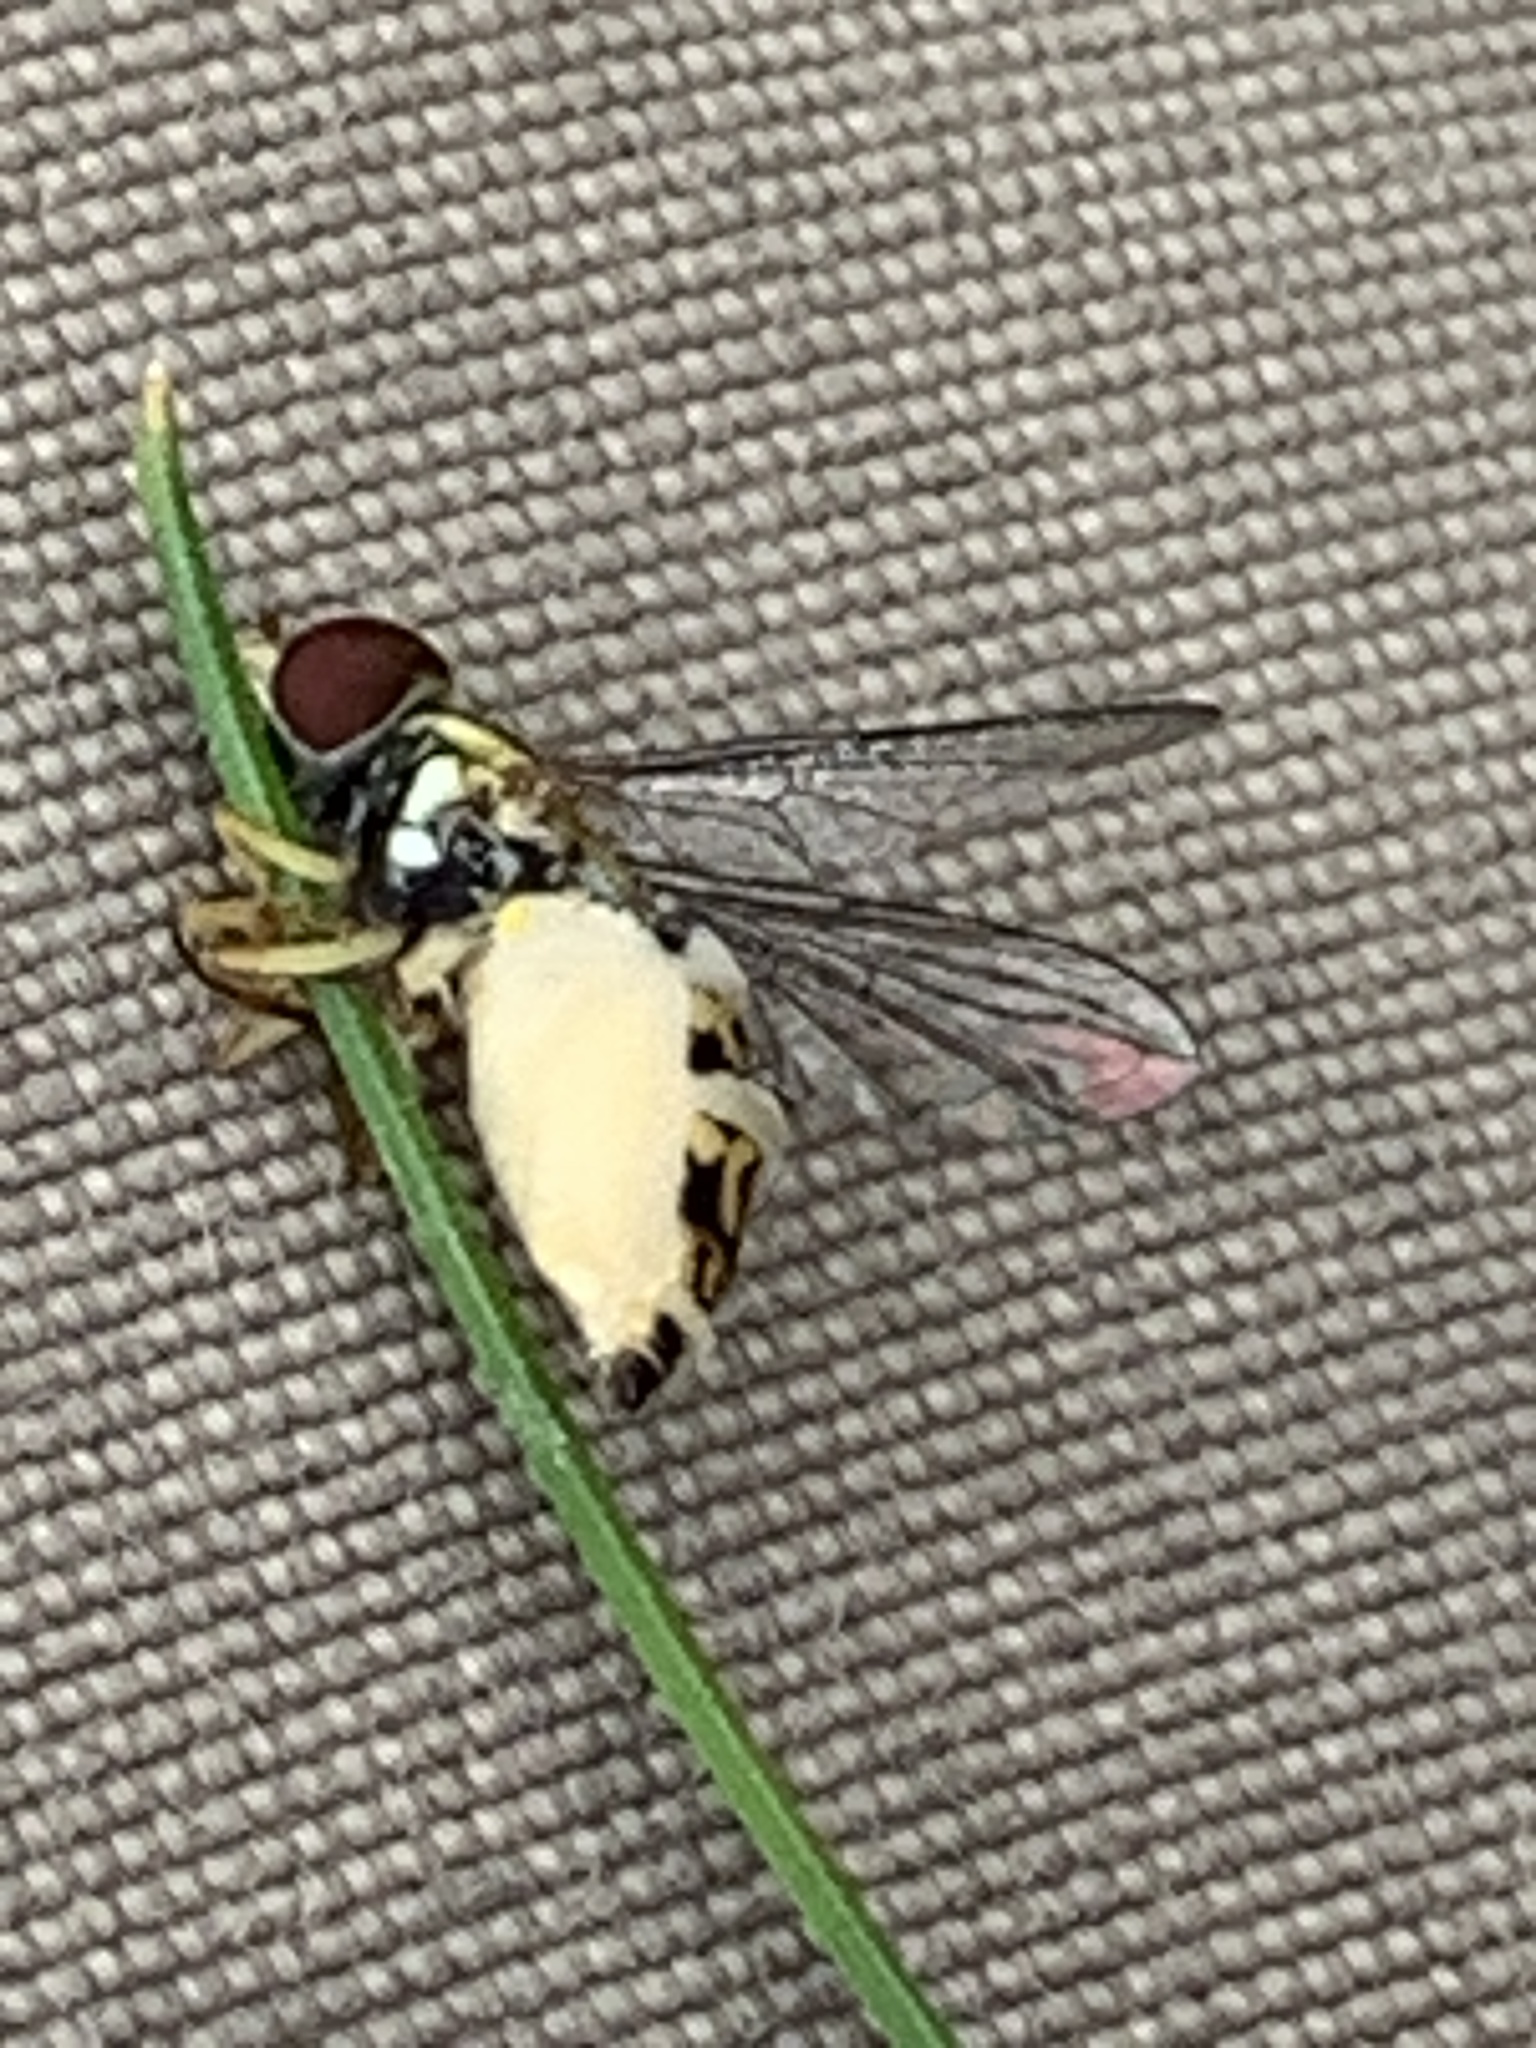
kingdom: Animalia
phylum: Arthropoda
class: Insecta
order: Diptera
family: Syrphidae
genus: Toxomerus
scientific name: Toxomerus geminatus
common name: Eastern calligrapher
